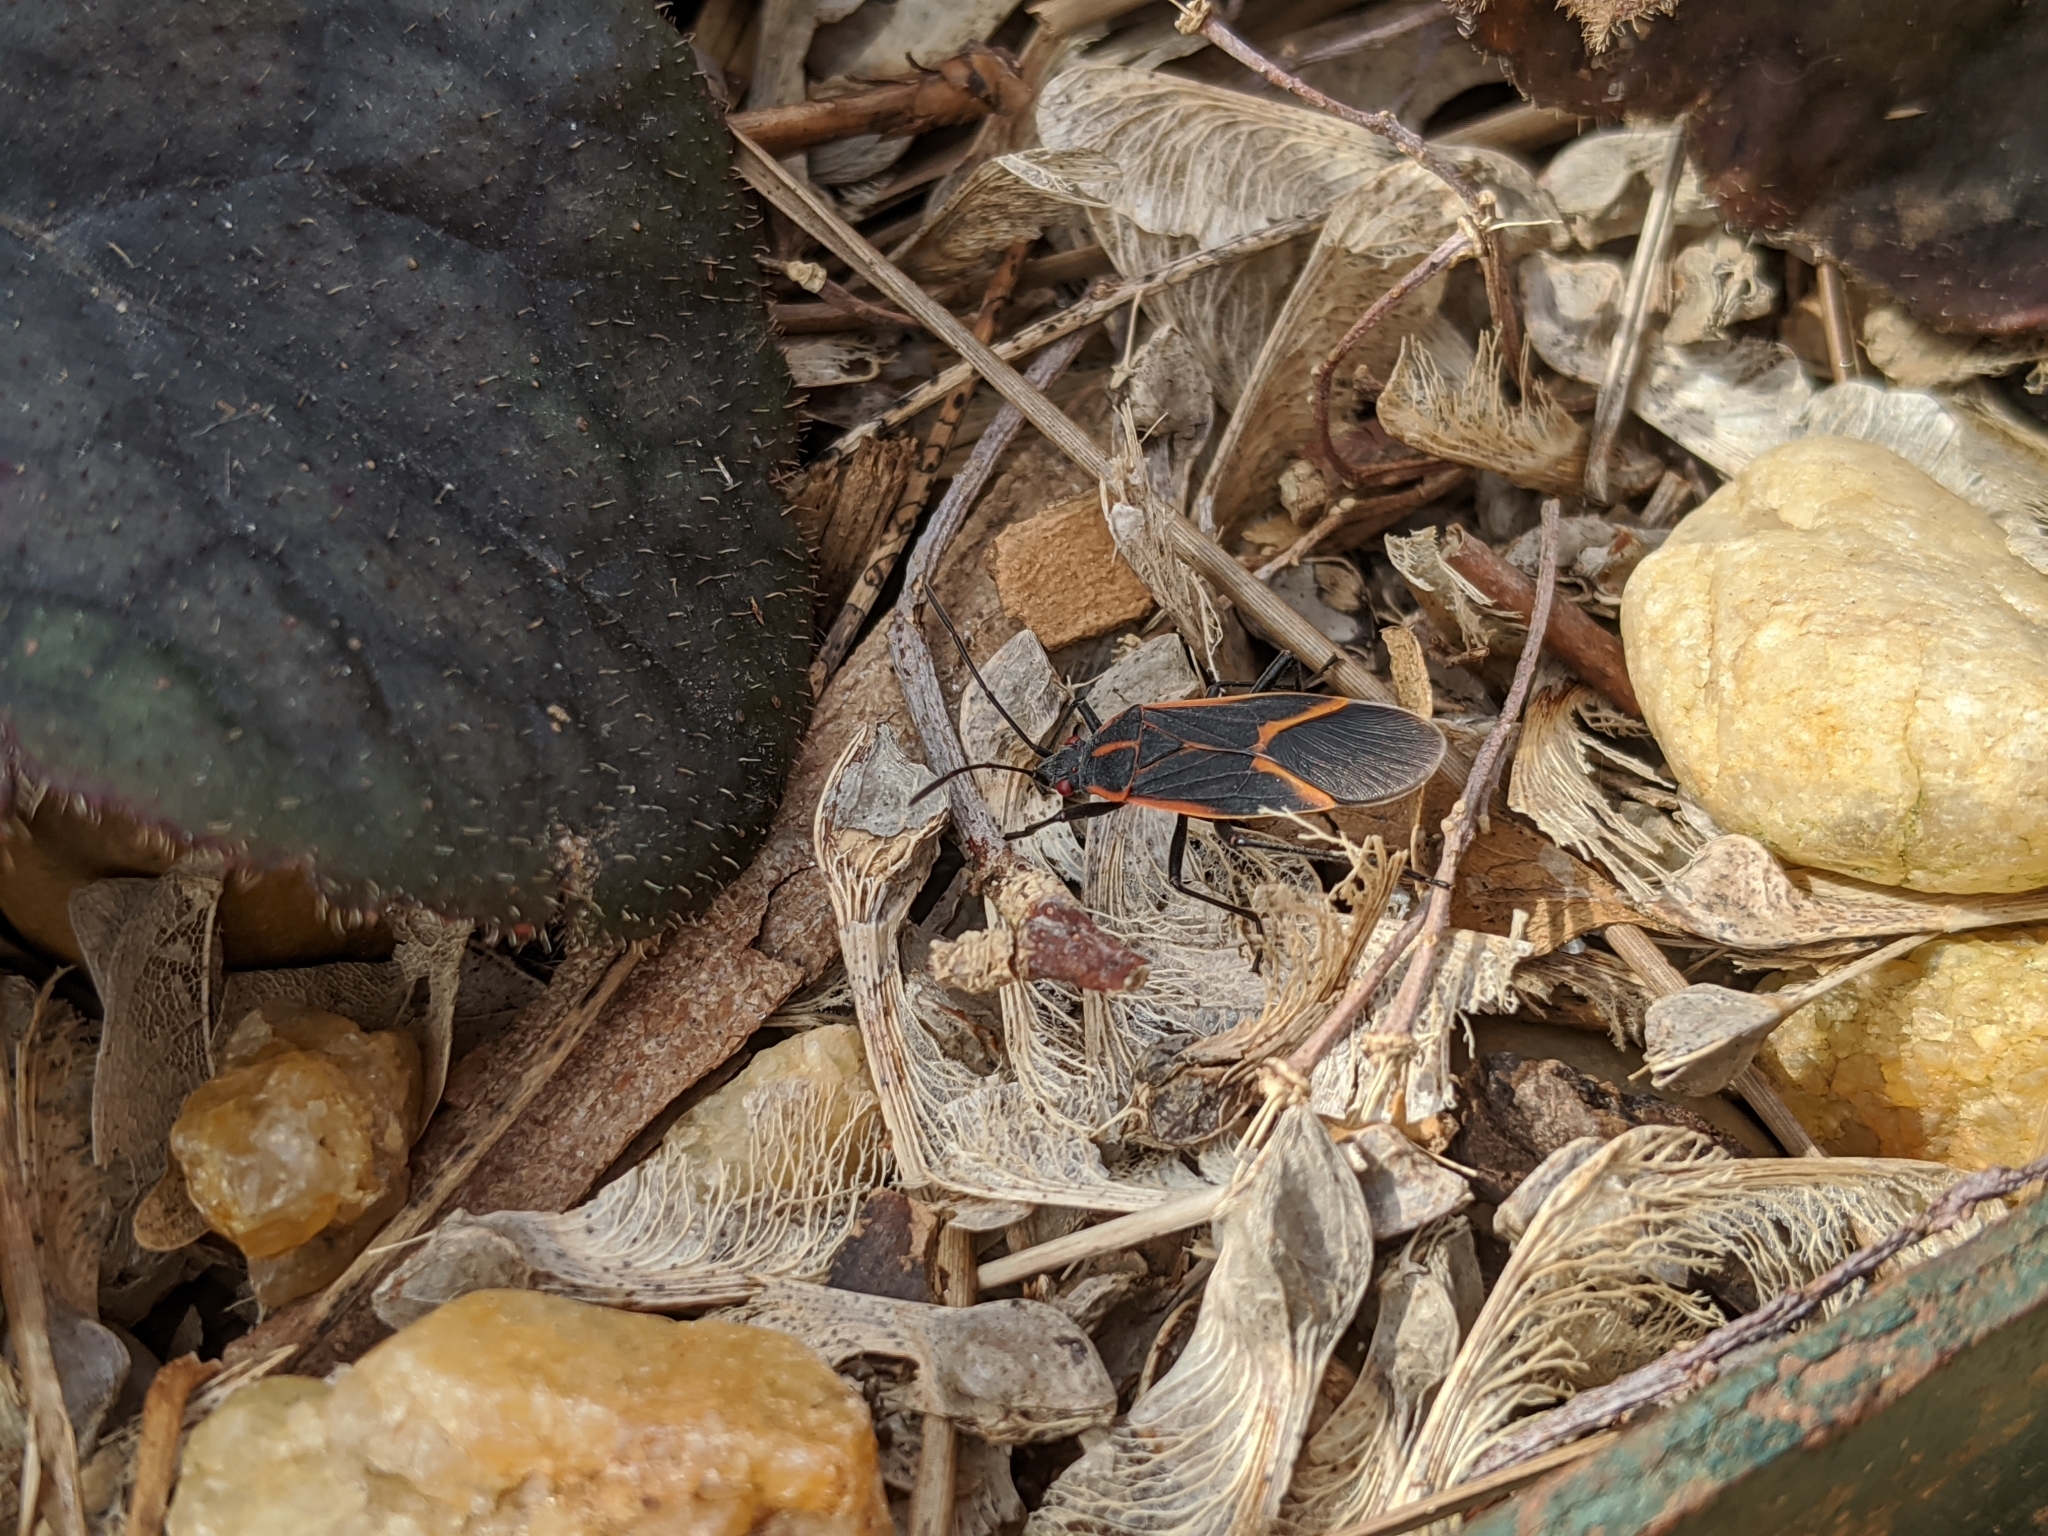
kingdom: Animalia
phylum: Arthropoda
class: Insecta
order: Hemiptera
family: Rhopalidae
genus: Boisea
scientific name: Boisea trivittata
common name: Boxelder bug
